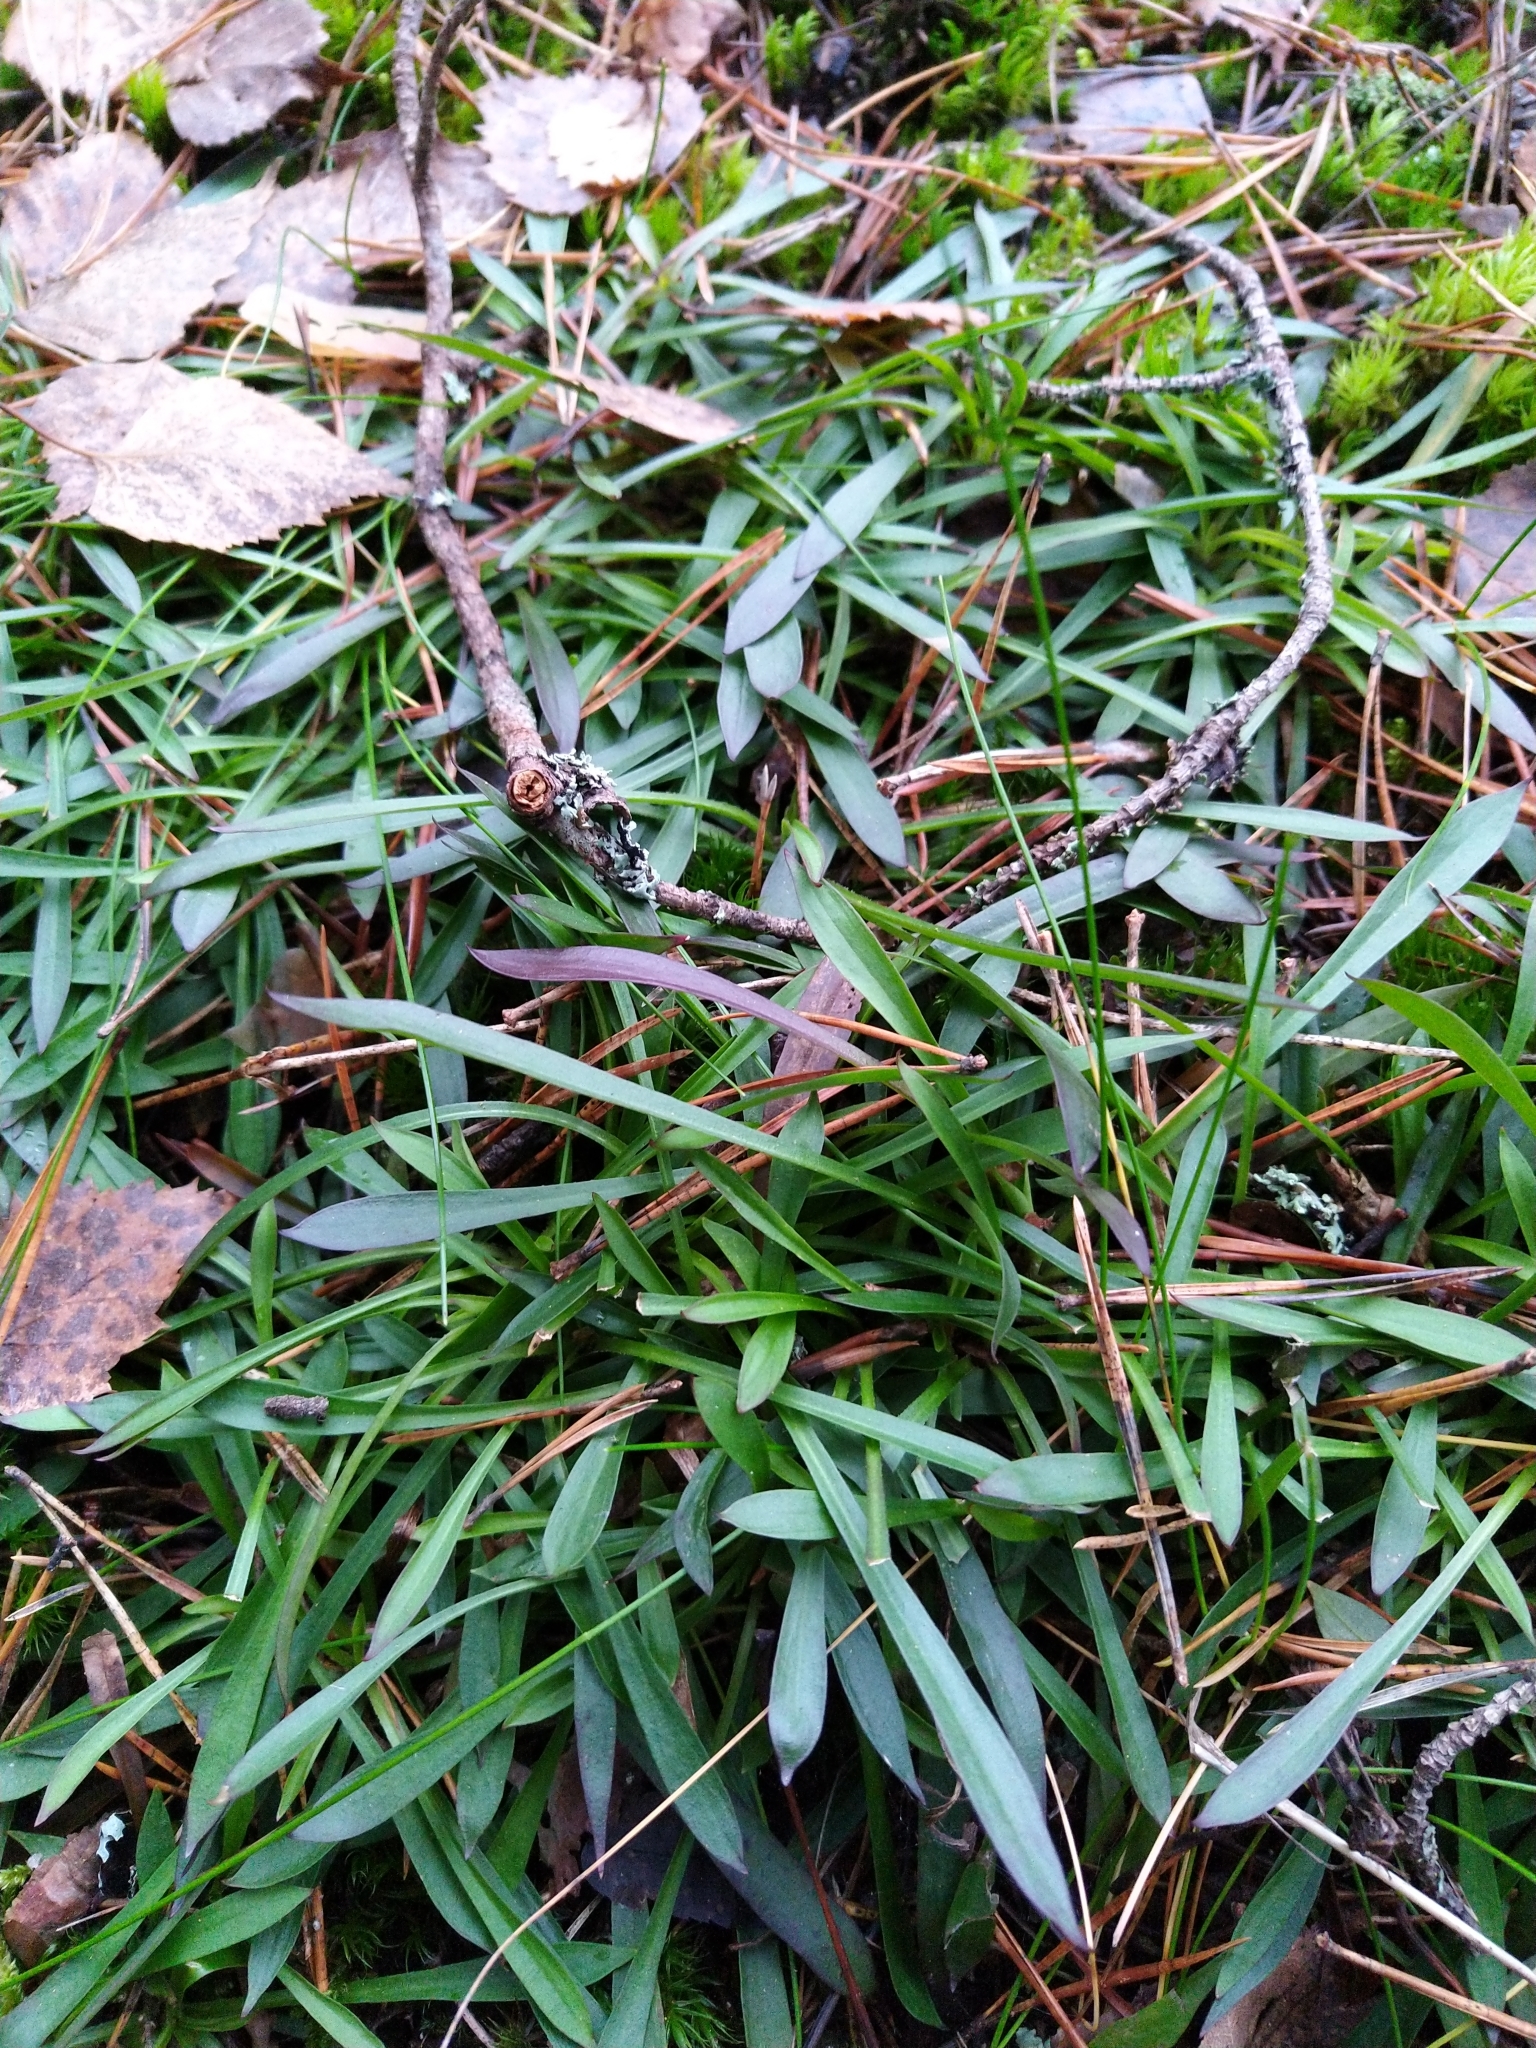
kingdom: Plantae
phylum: Tracheophyta
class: Magnoliopsida
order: Caryophyllales
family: Caryophyllaceae
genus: Viscaria
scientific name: Viscaria vulgaris
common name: Clammy campion
